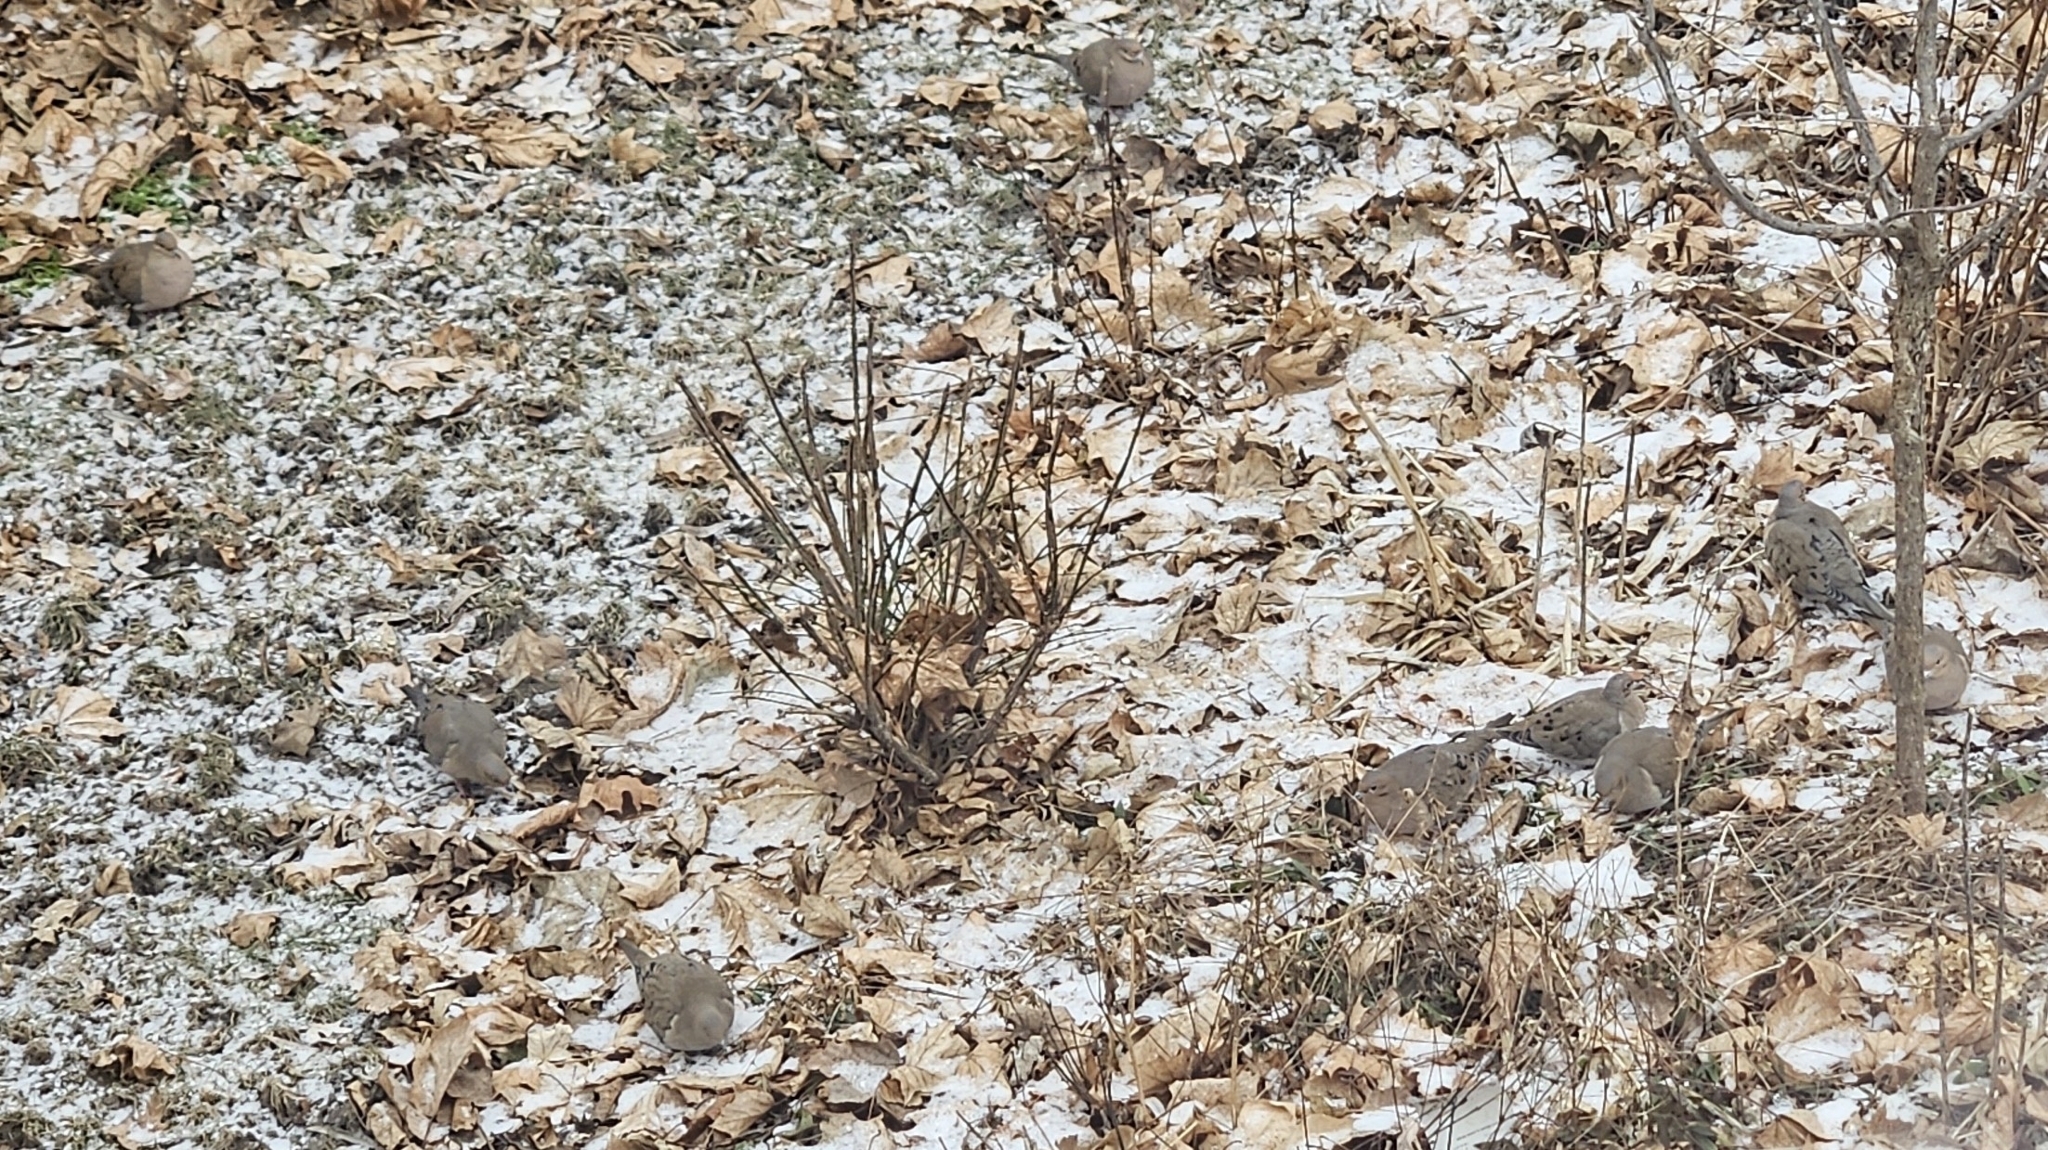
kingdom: Animalia
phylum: Chordata
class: Aves
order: Columbiformes
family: Columbidae
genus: Zenaida
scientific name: Zenaida macroura
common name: Mourning dove
